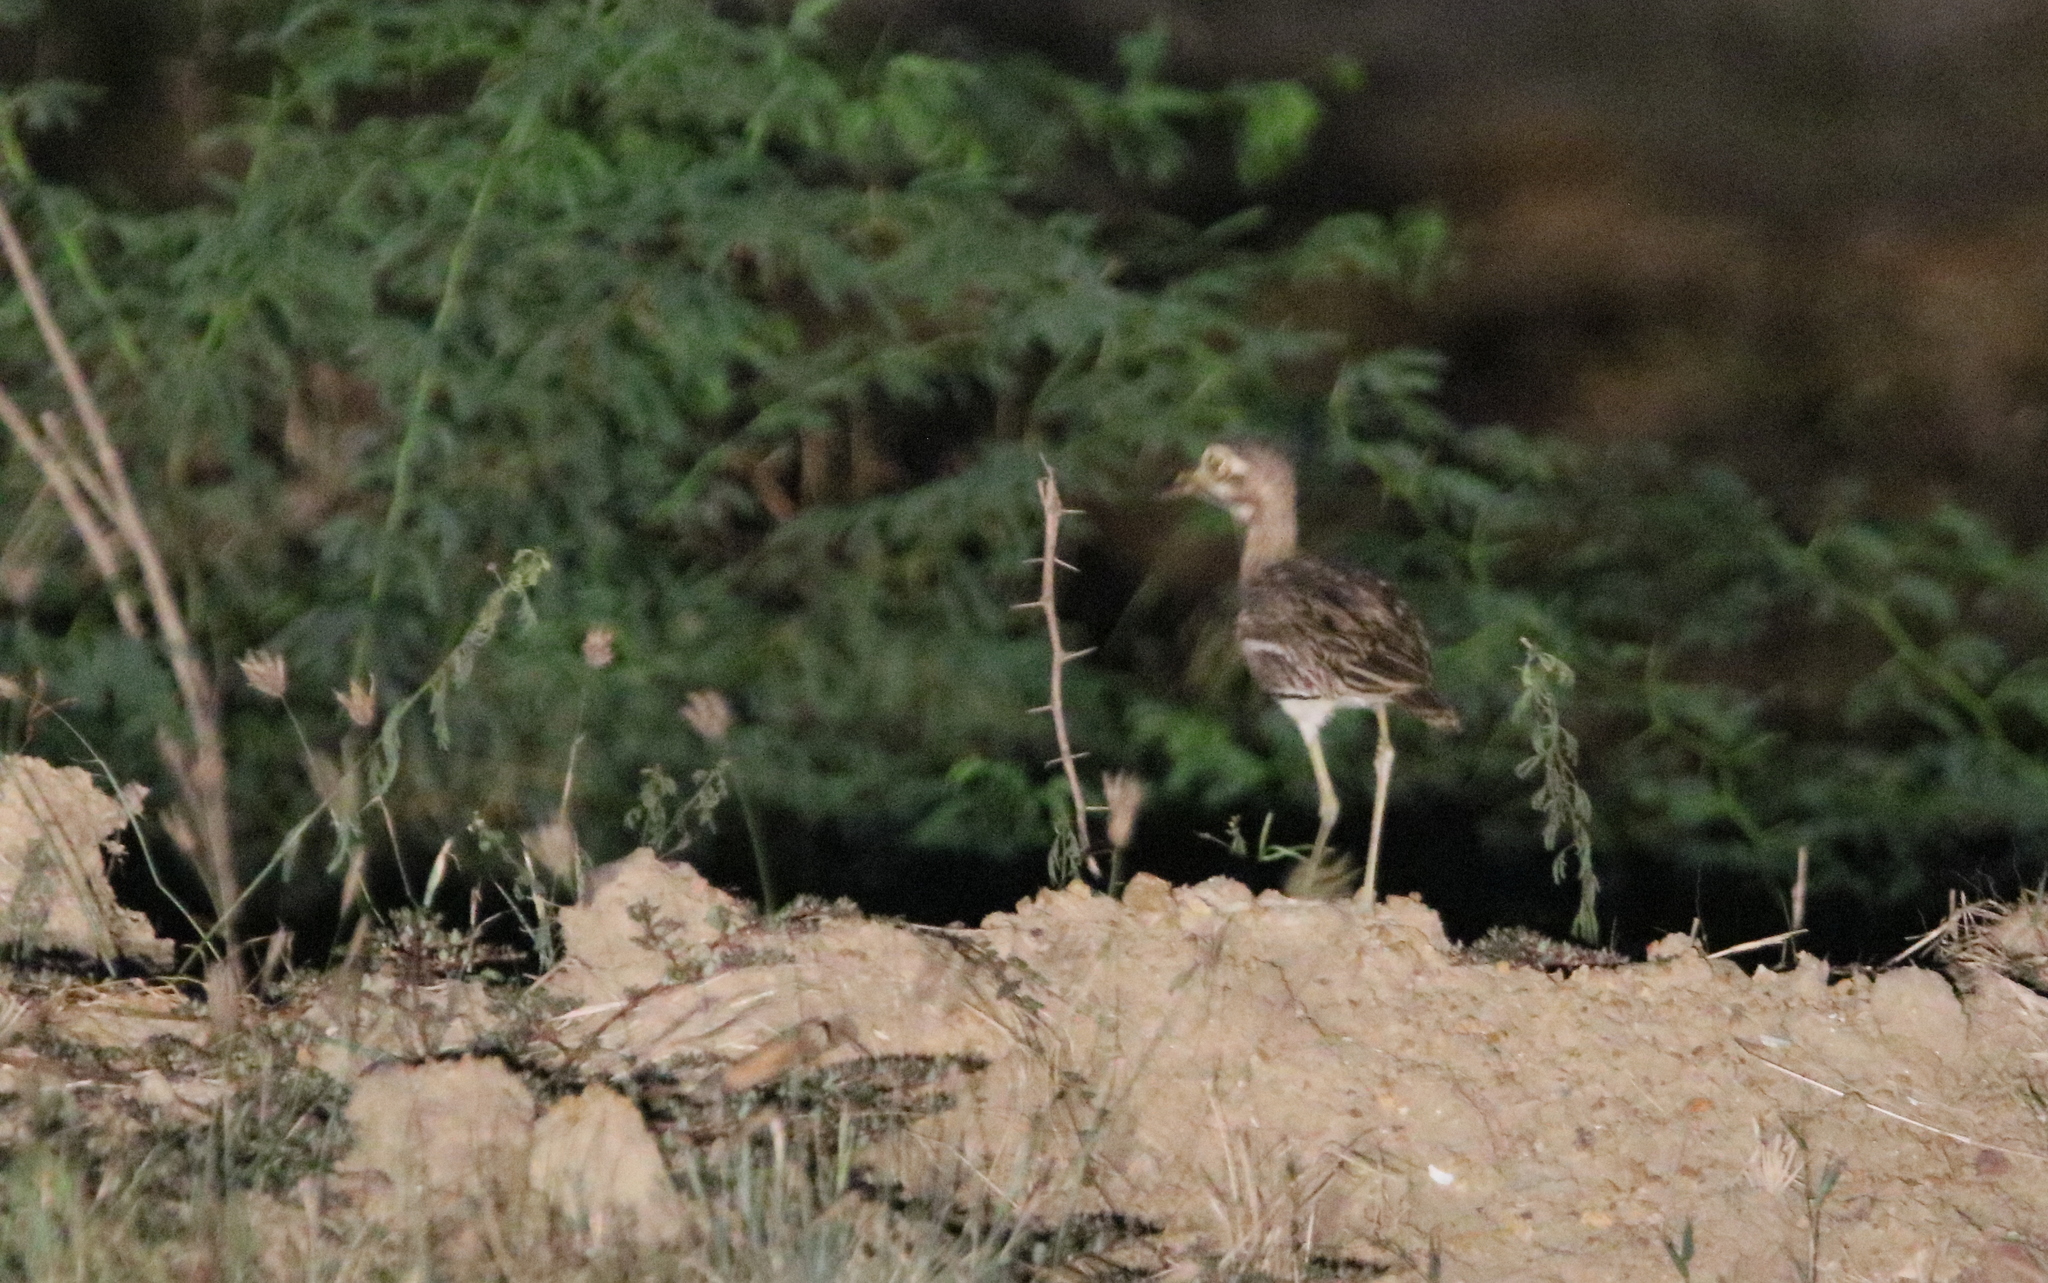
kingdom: Animalia
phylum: Chordata
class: Aves
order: Charadriiformes
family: Burhinidae
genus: Burhinus
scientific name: Burhinus indicus
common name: Indian thick-knee
